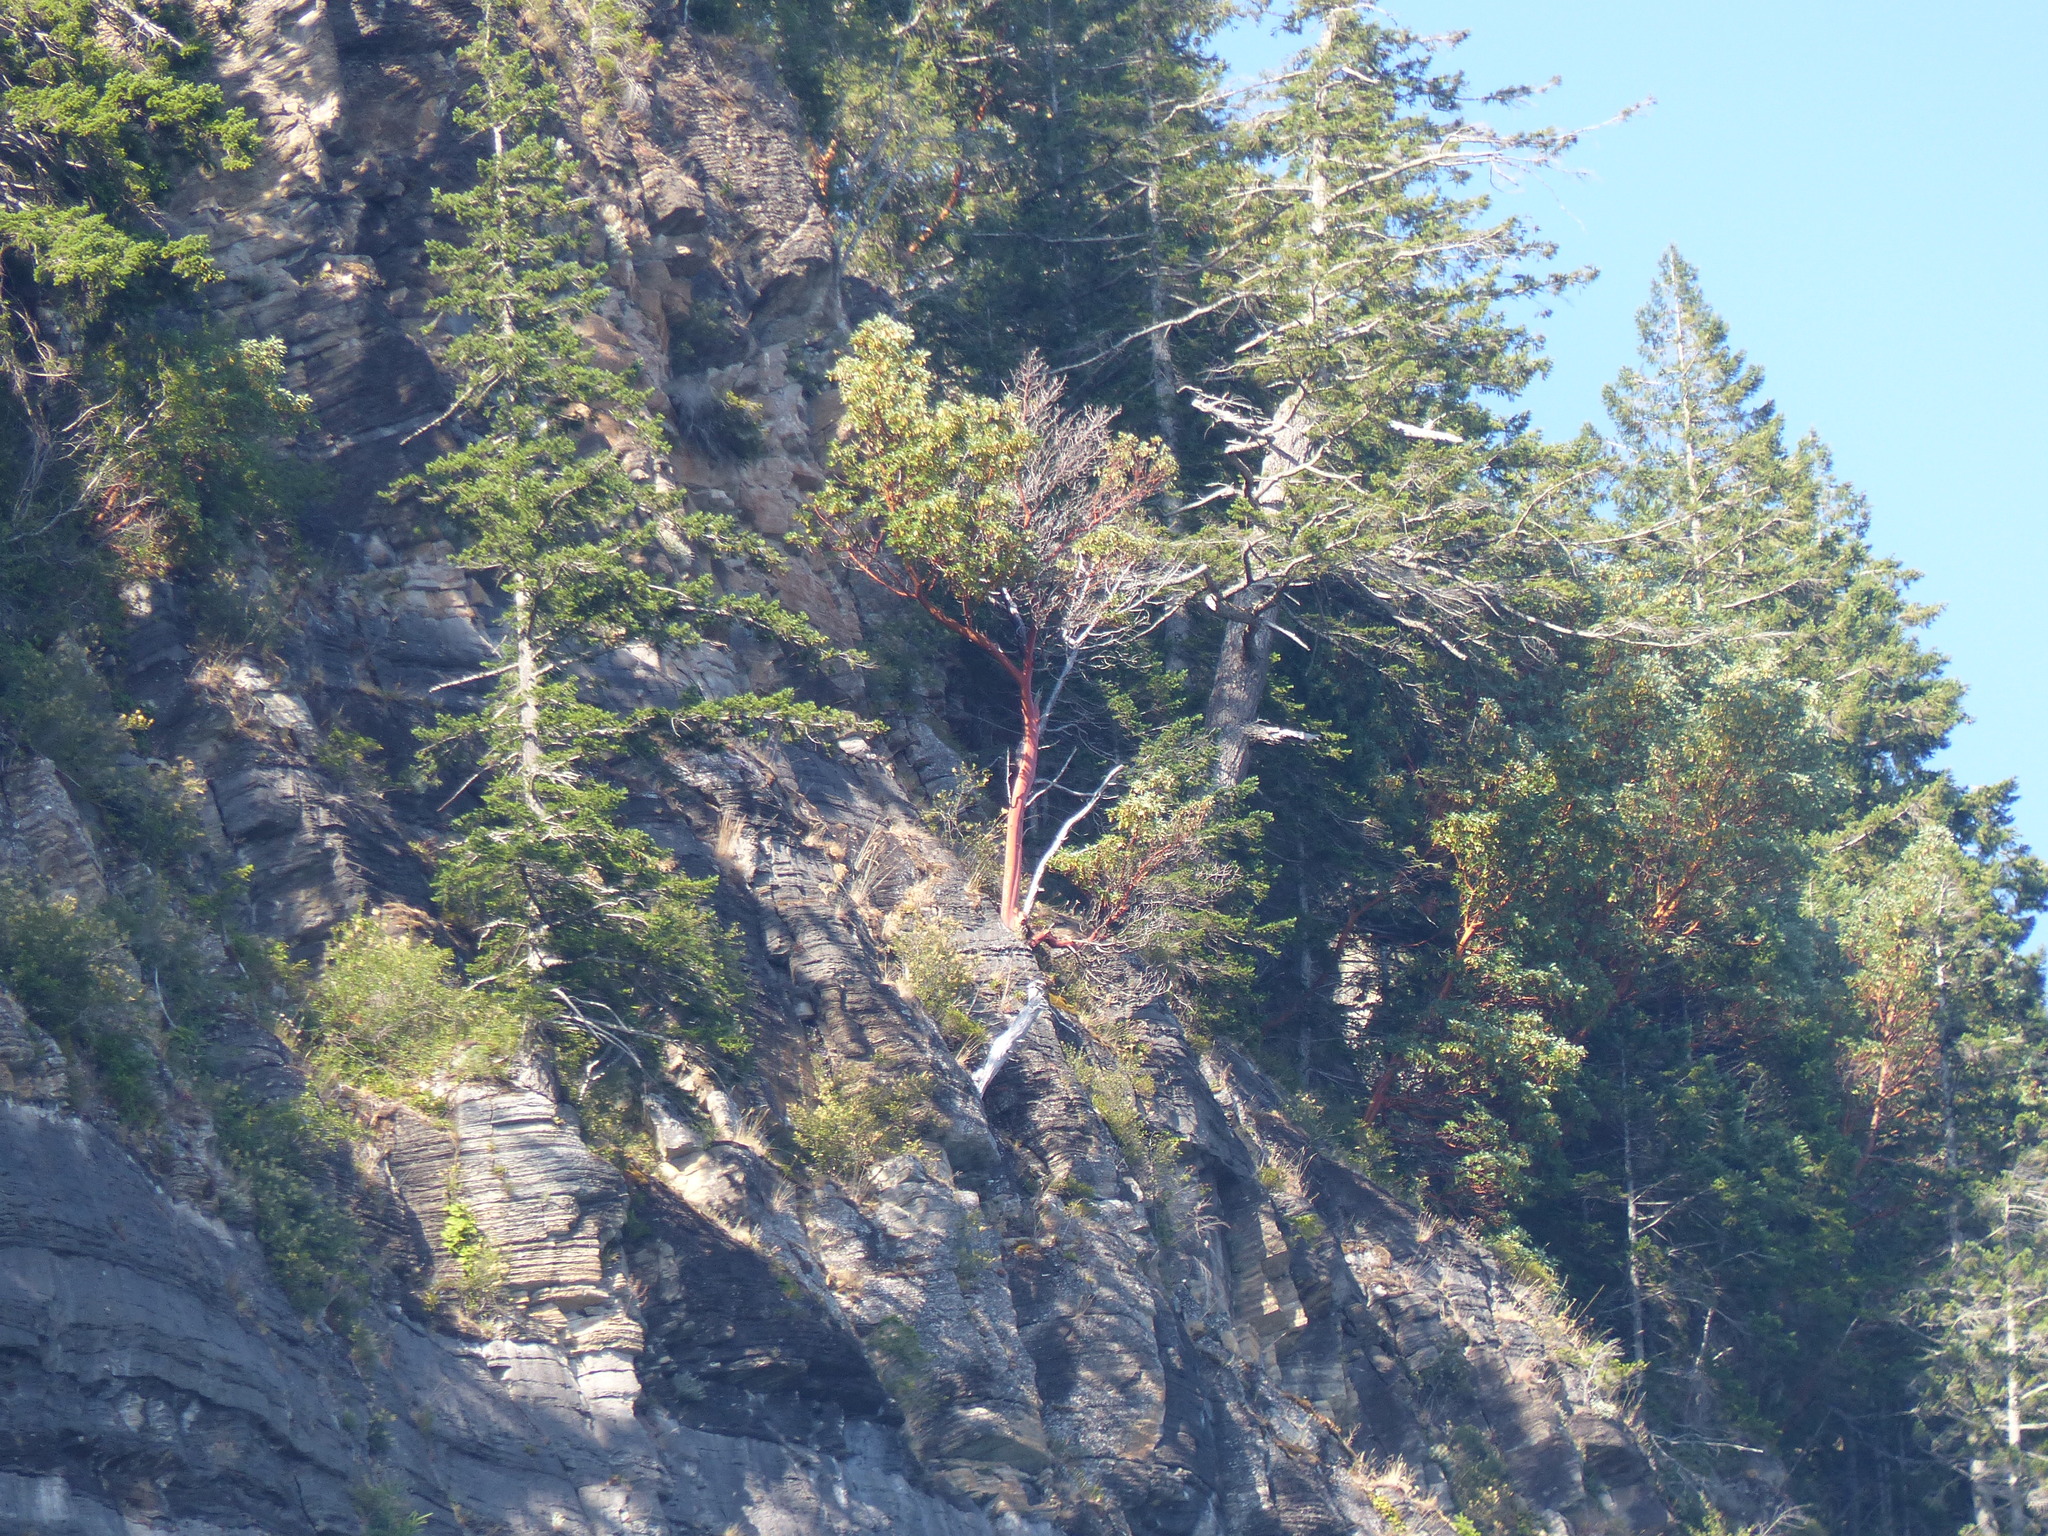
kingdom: Plantae
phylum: Tracheophyta
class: Magnoliopsida
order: Ericales
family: Ericaceae
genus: Arbutus
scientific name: Arbutus menziesii
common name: Pacific madrone
